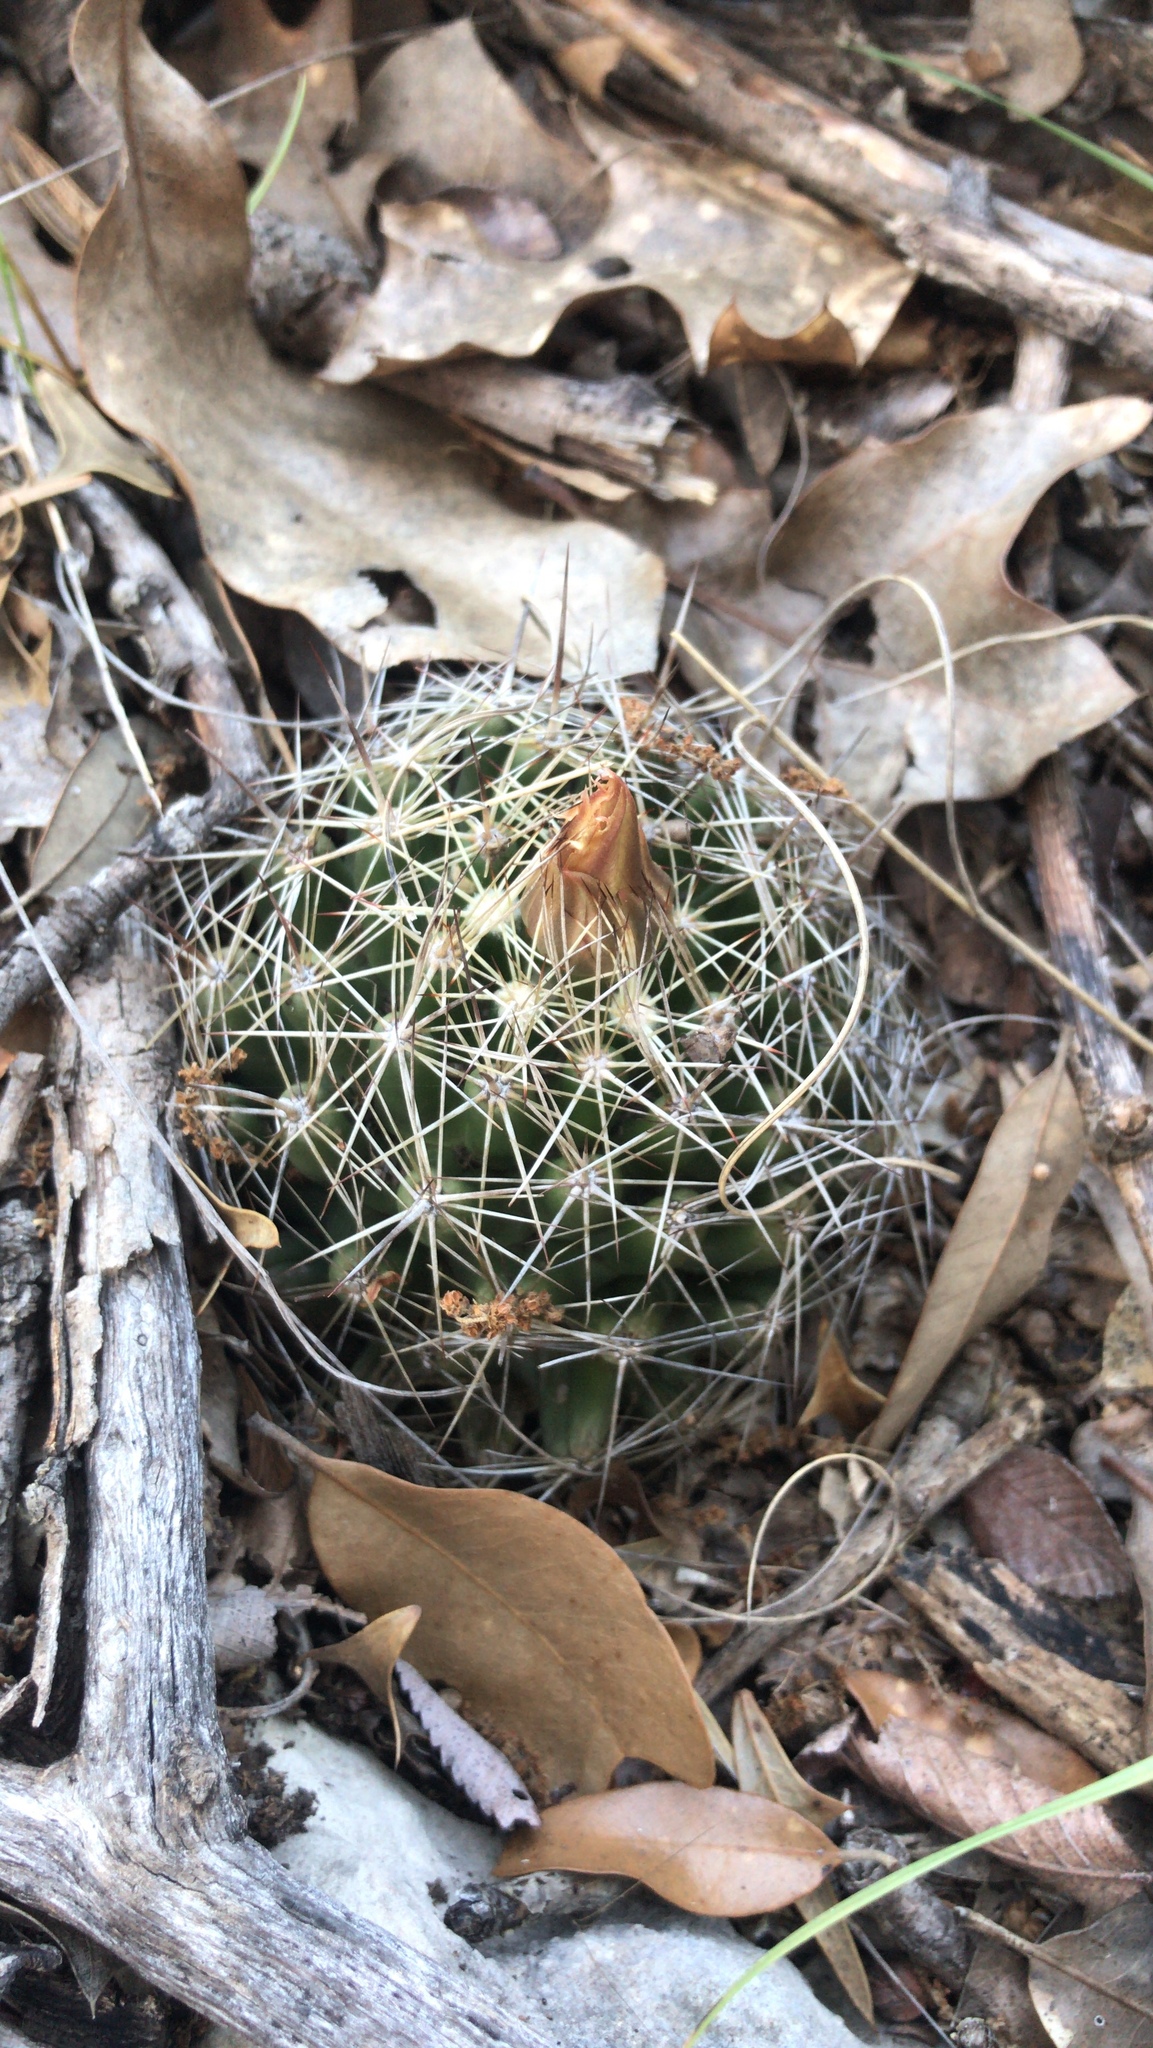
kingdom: Plantae
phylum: Tracheophyta
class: Magnoliopsida
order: Caryophyllales
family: Cactaceae
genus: Coryphantha
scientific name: Coryphantha sulcata
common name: Finger cactus
